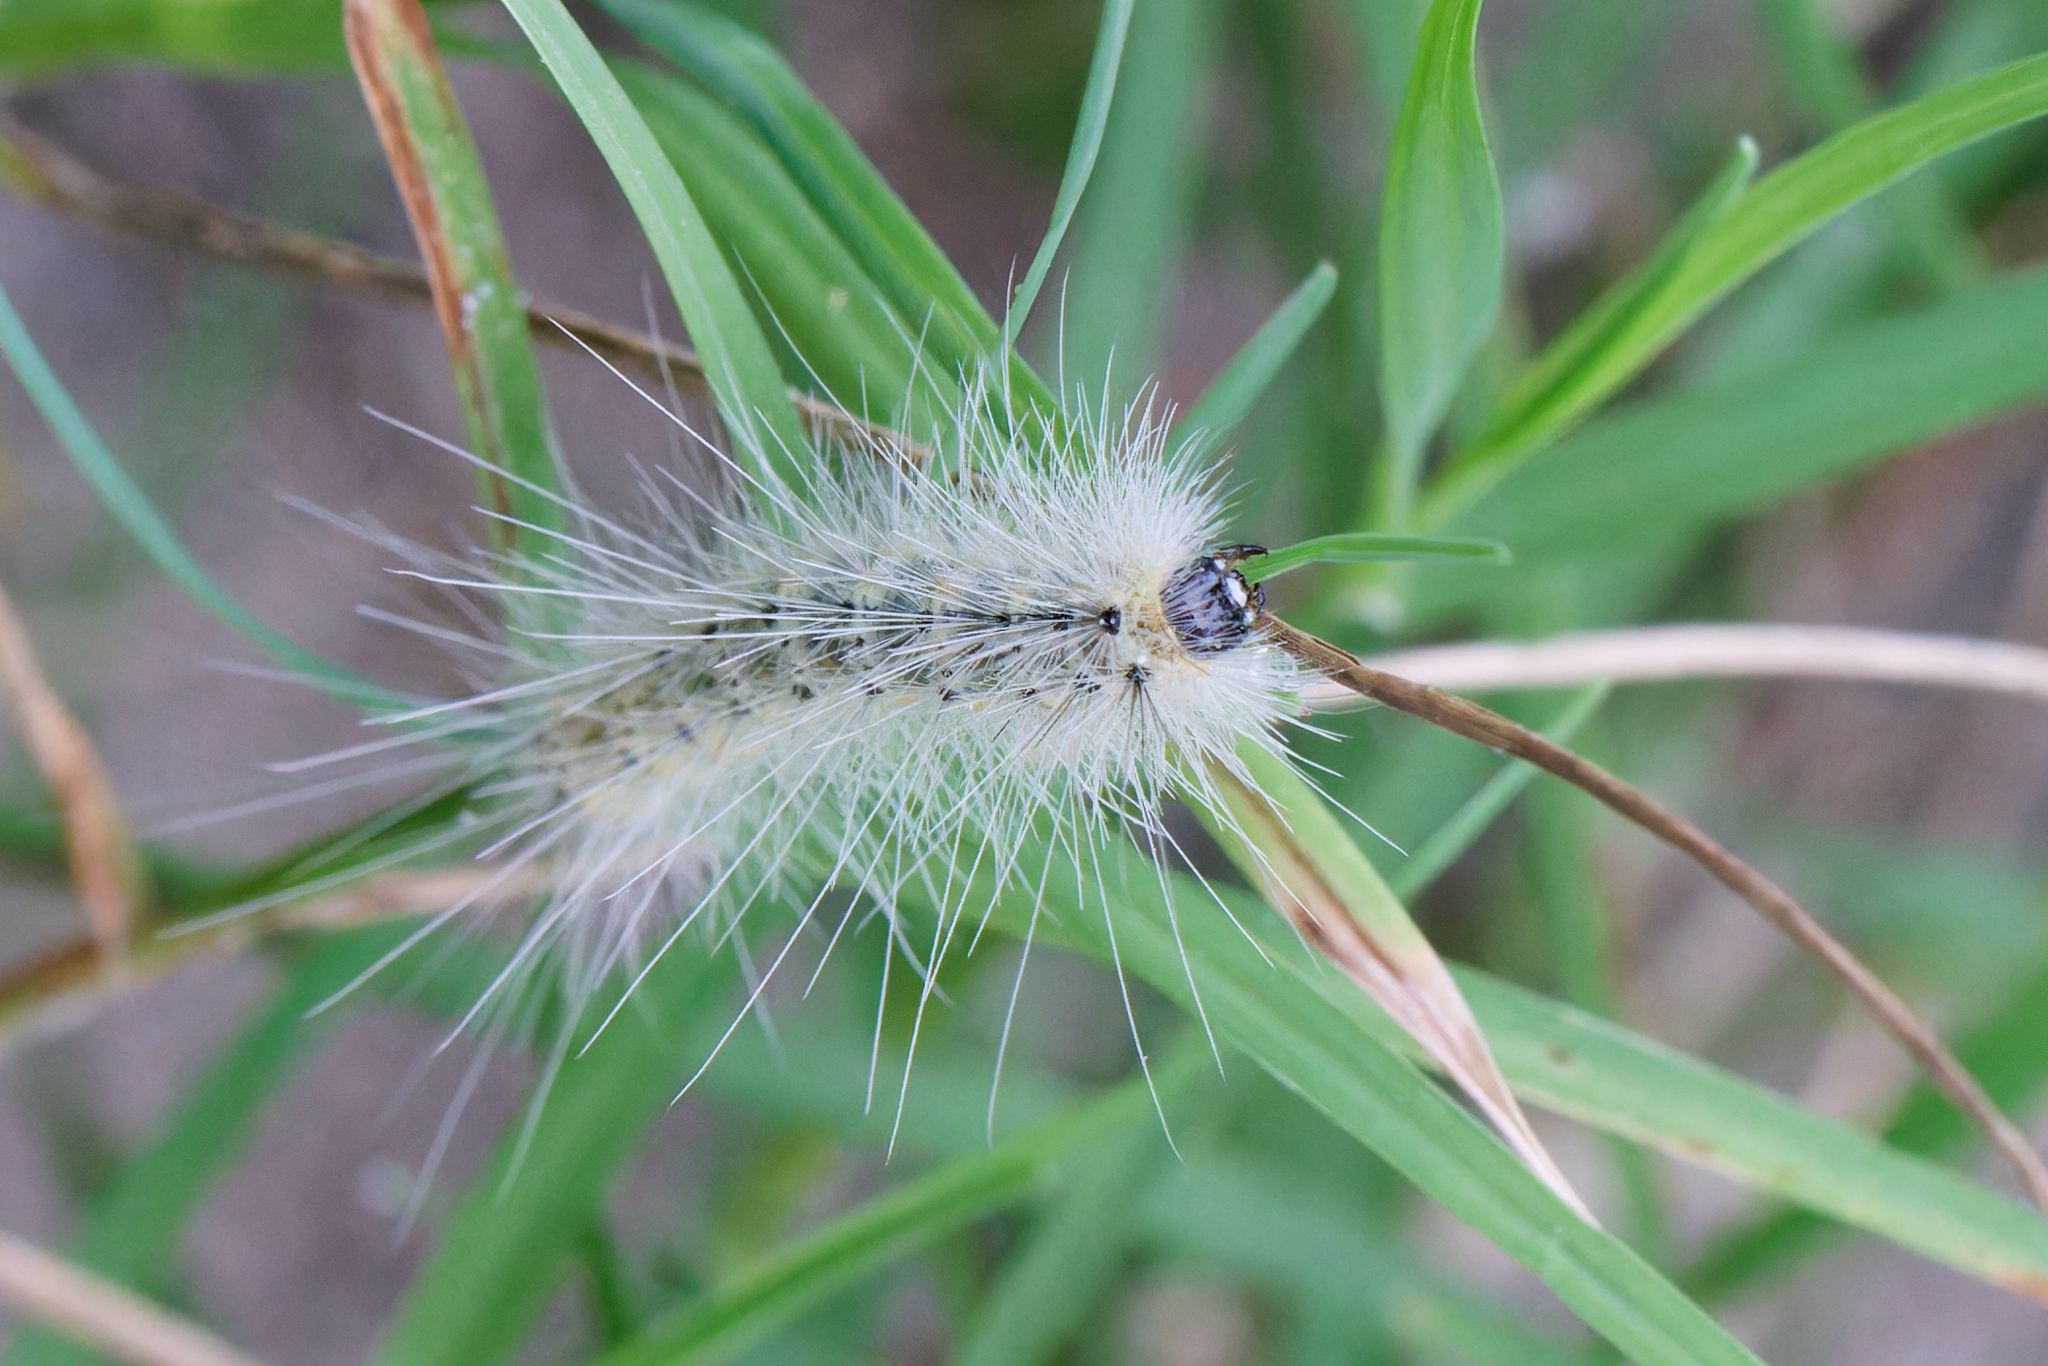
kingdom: Animalia
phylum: Arthropoda
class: Insecta
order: Lepidoptera
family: Erebidae
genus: Hyphantria
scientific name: Hyphantria cunea
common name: American white moth
